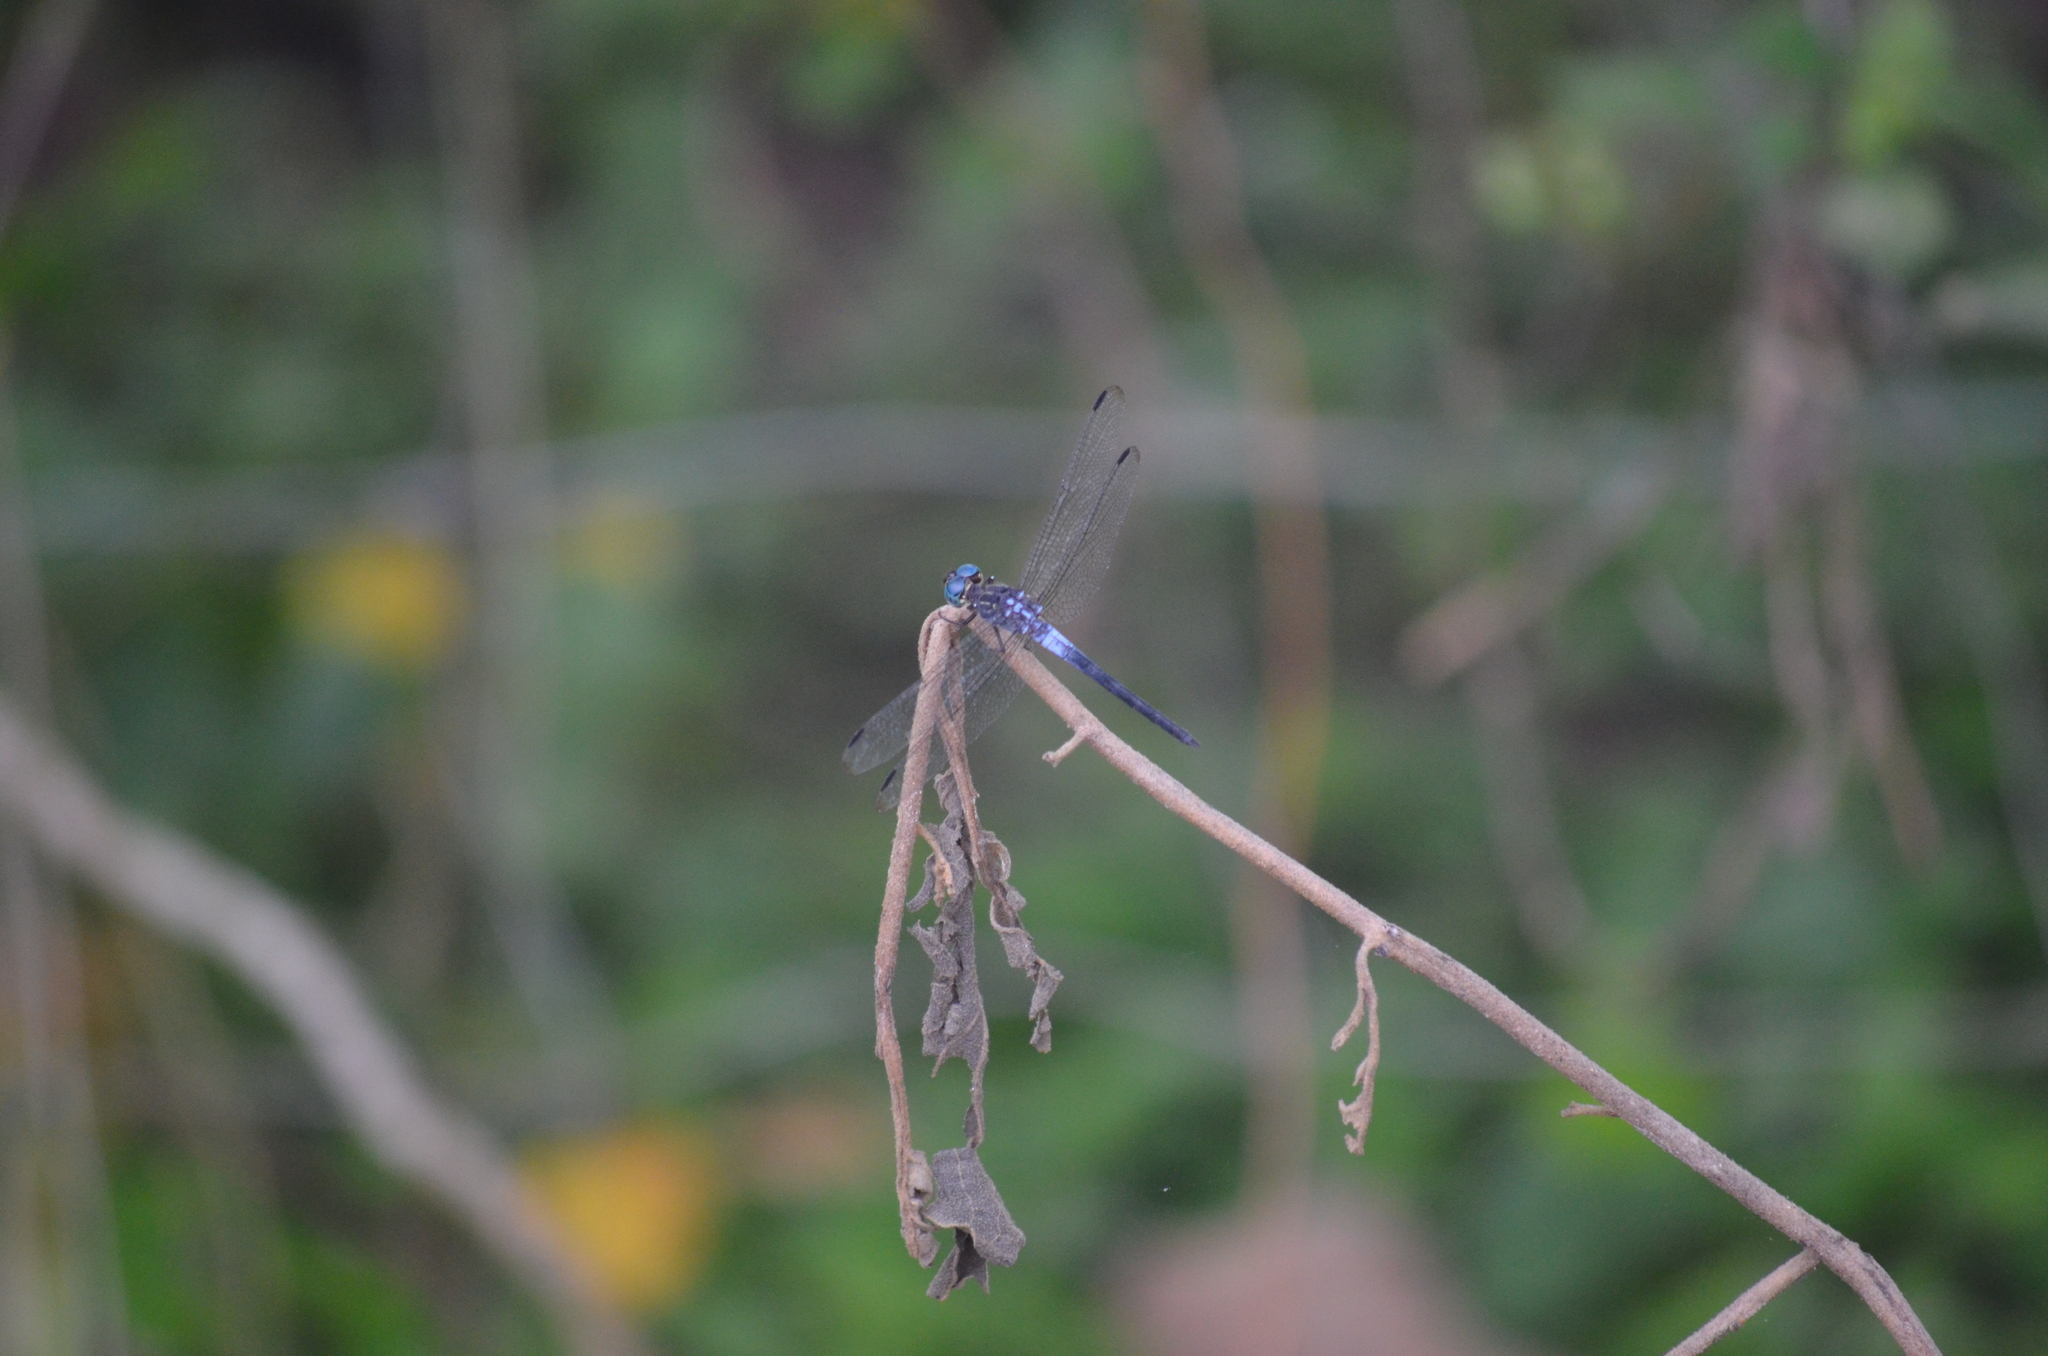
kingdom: Animalia
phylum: Arthropoda
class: Insecta
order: Odonata
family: Libellulidae
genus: Cannaphila
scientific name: Cannaphila insularis
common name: Gray-waisted skimmer
